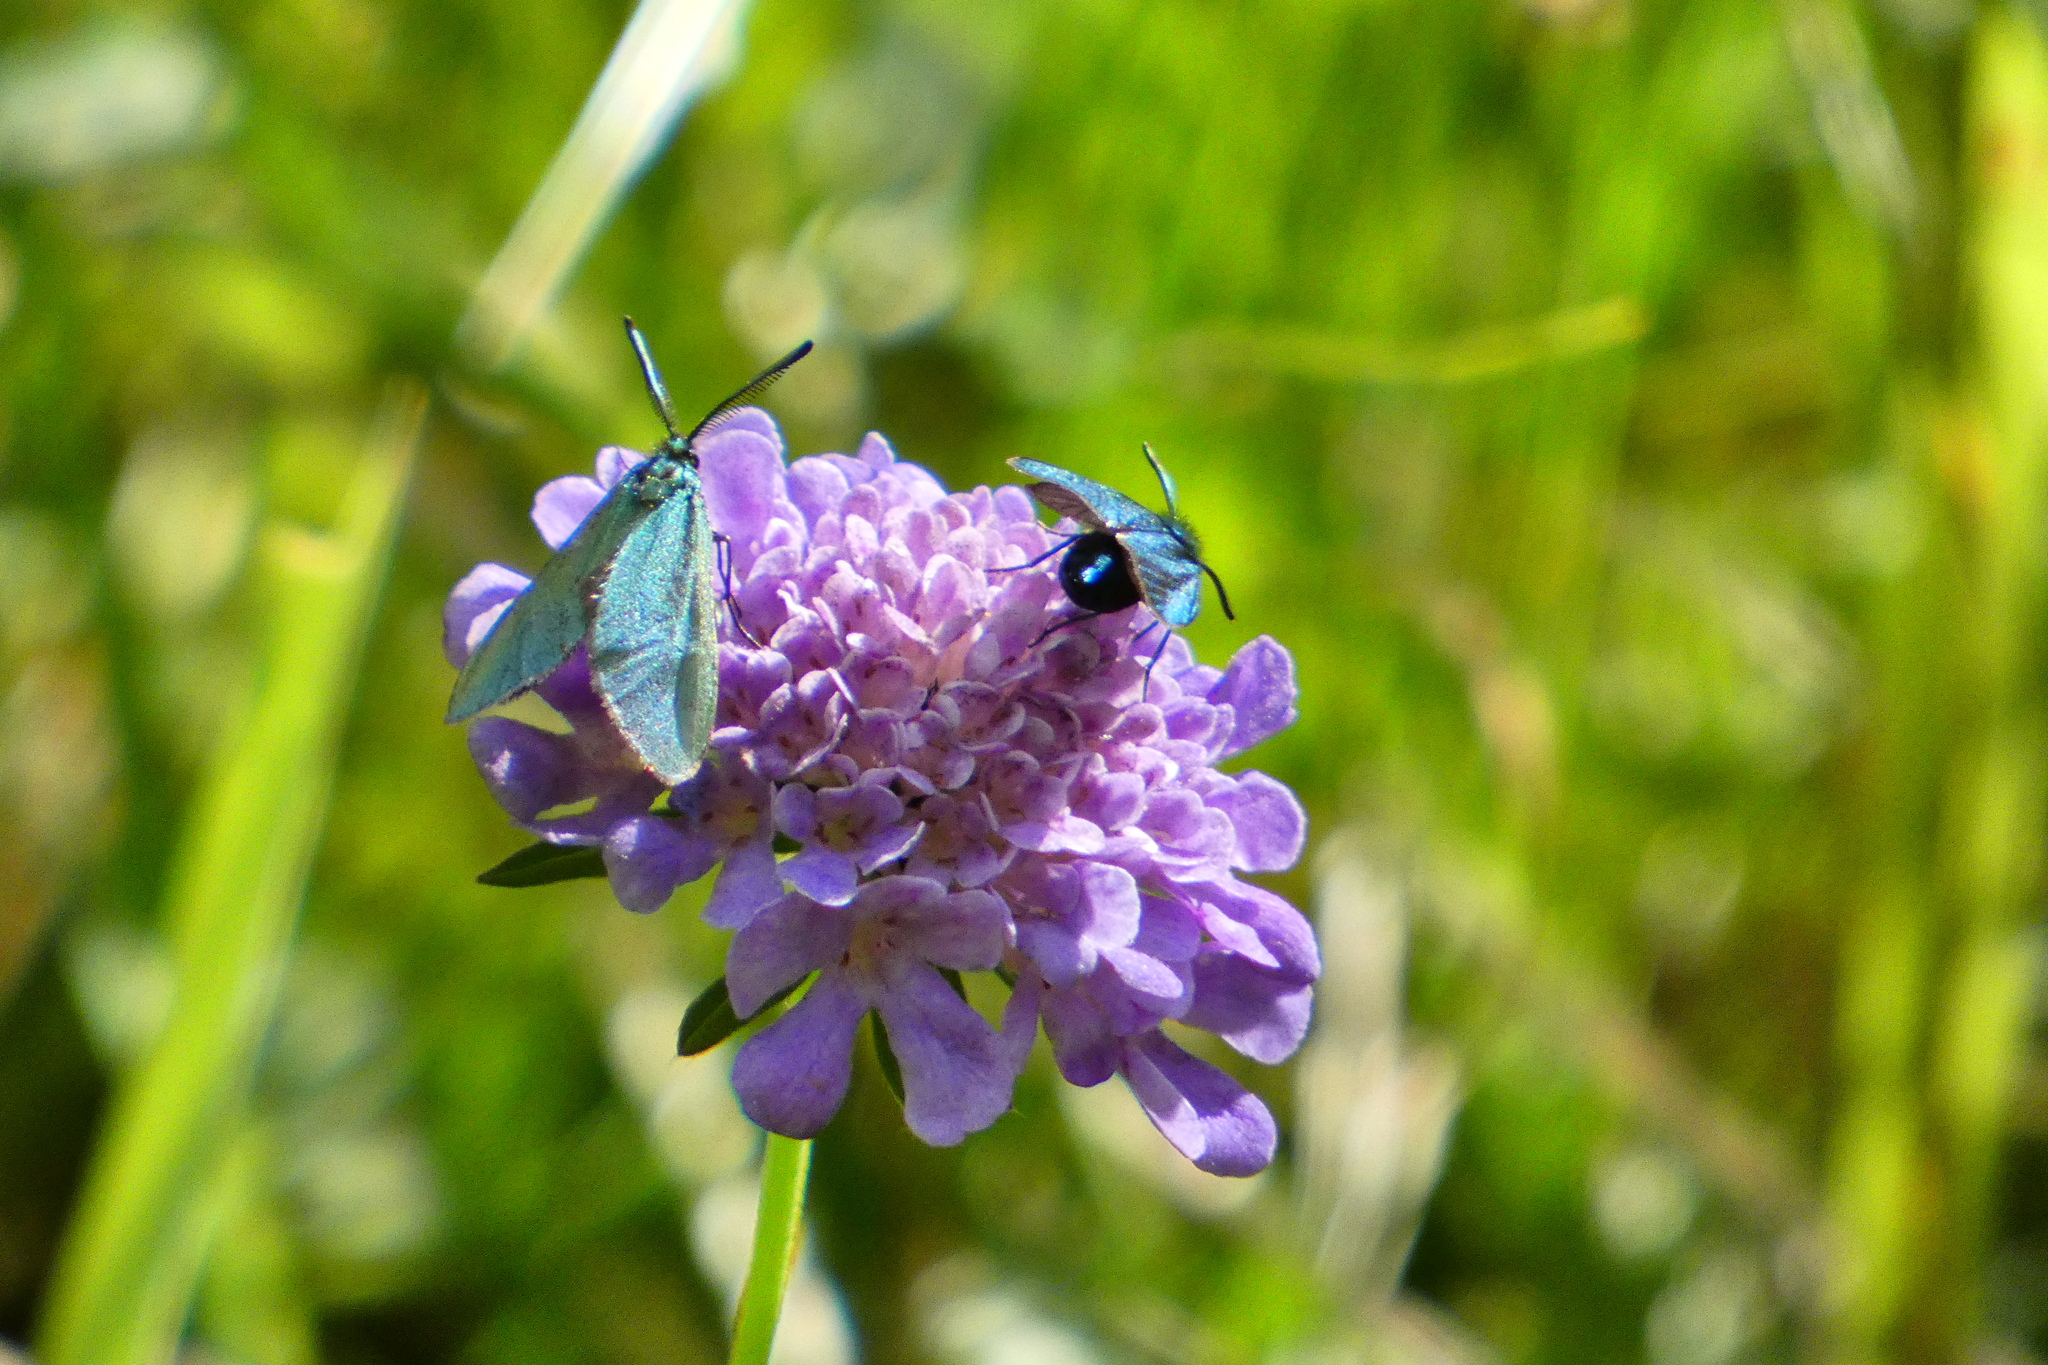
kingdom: Animalia
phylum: Arthropoda
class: Insecta
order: Lepidoptera
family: Zygaenidae
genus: Adscita
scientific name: Adscita statices
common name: Forester
